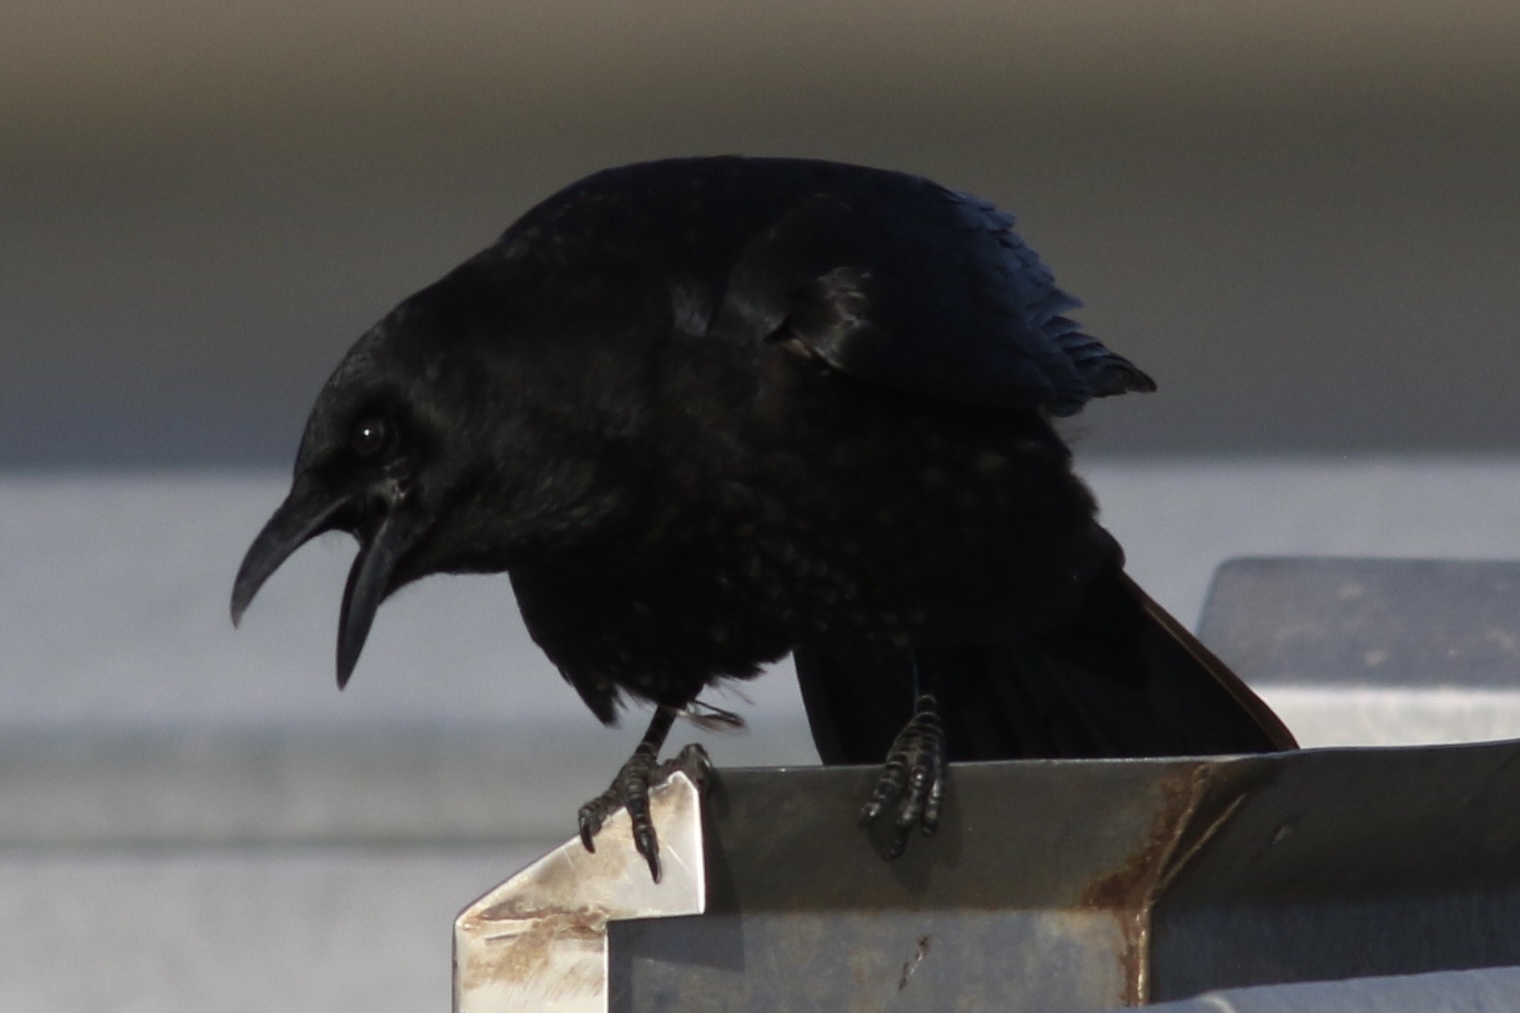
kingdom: Animalia
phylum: Chordata
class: Aves
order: Passeriformes
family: Corvidae
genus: Corvus
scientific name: Corvus brachyrhynchos
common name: American crow
